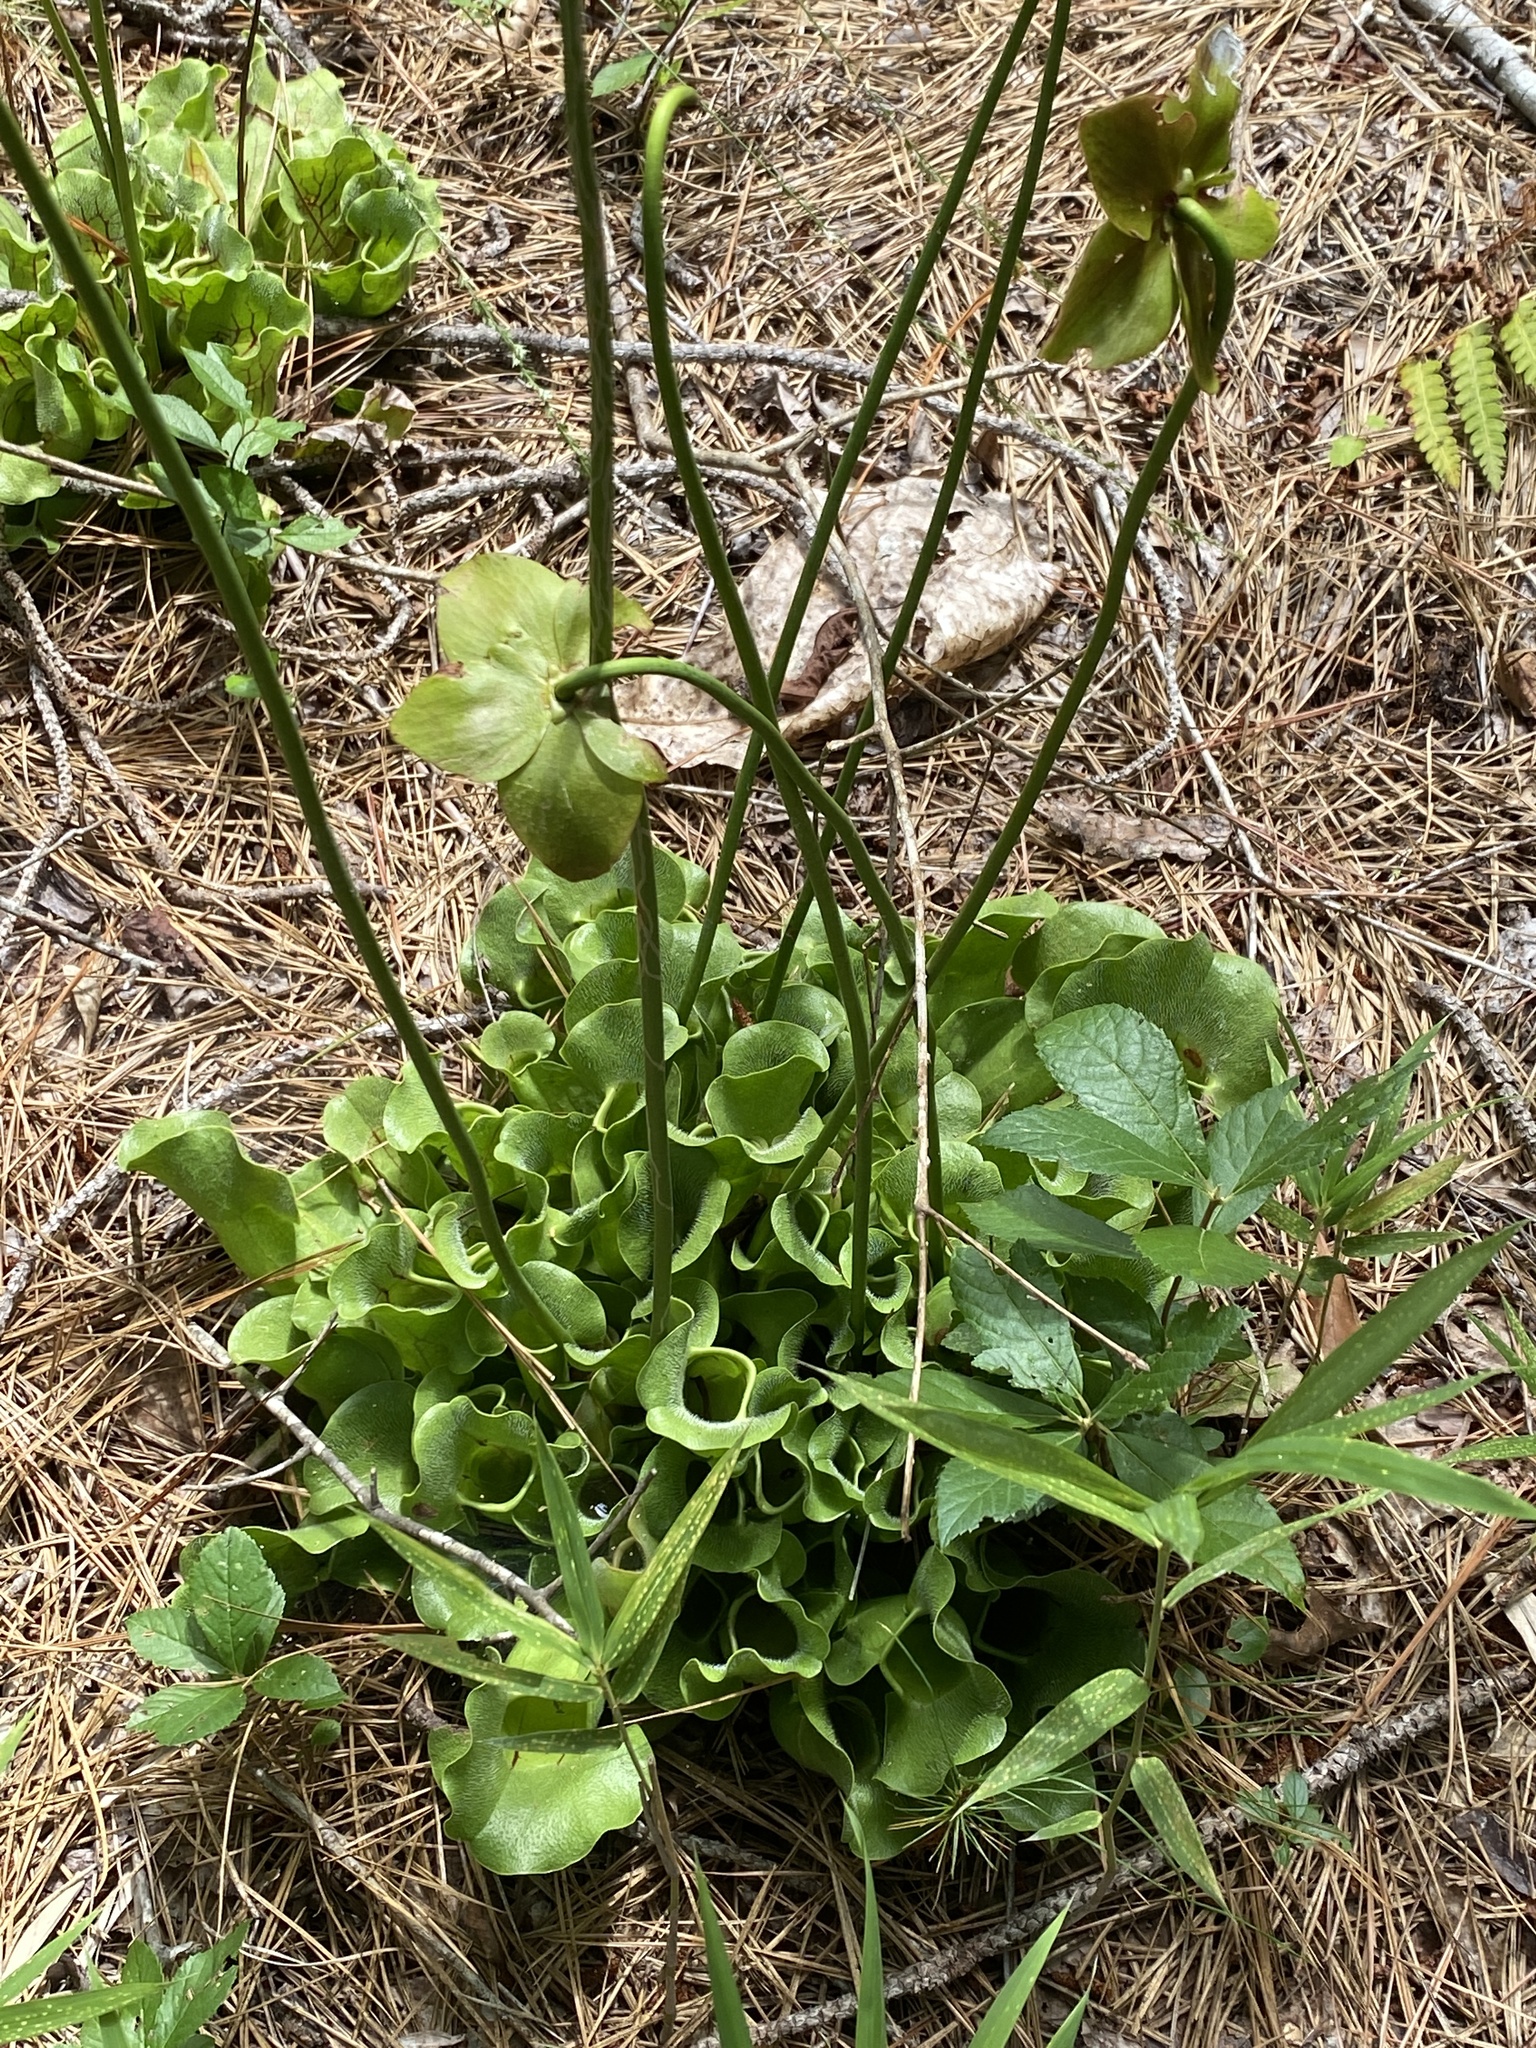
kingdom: Plantae
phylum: Tracheophyta
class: Magnoliopsida
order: Ericales
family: Sarraceniaceae
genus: Sarracenia
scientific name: Sarracenia purpurea
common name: Pitcherplant
